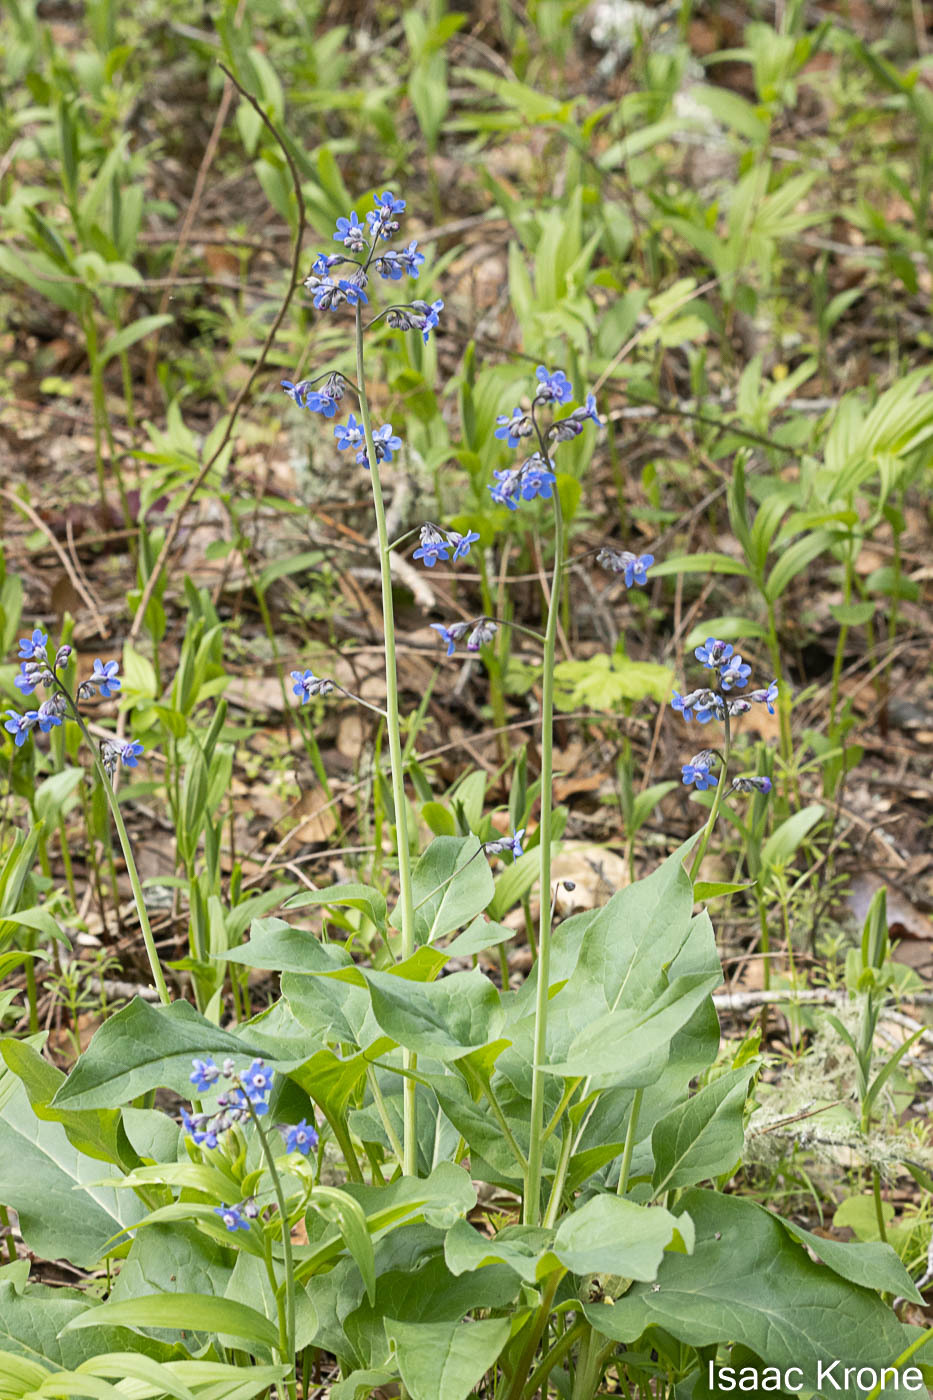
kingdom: Plantae
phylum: Tracheophyta
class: Magnoliopsida
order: Boraginales
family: Boraginaceae
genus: Adelinia
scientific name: Adelinia grande
